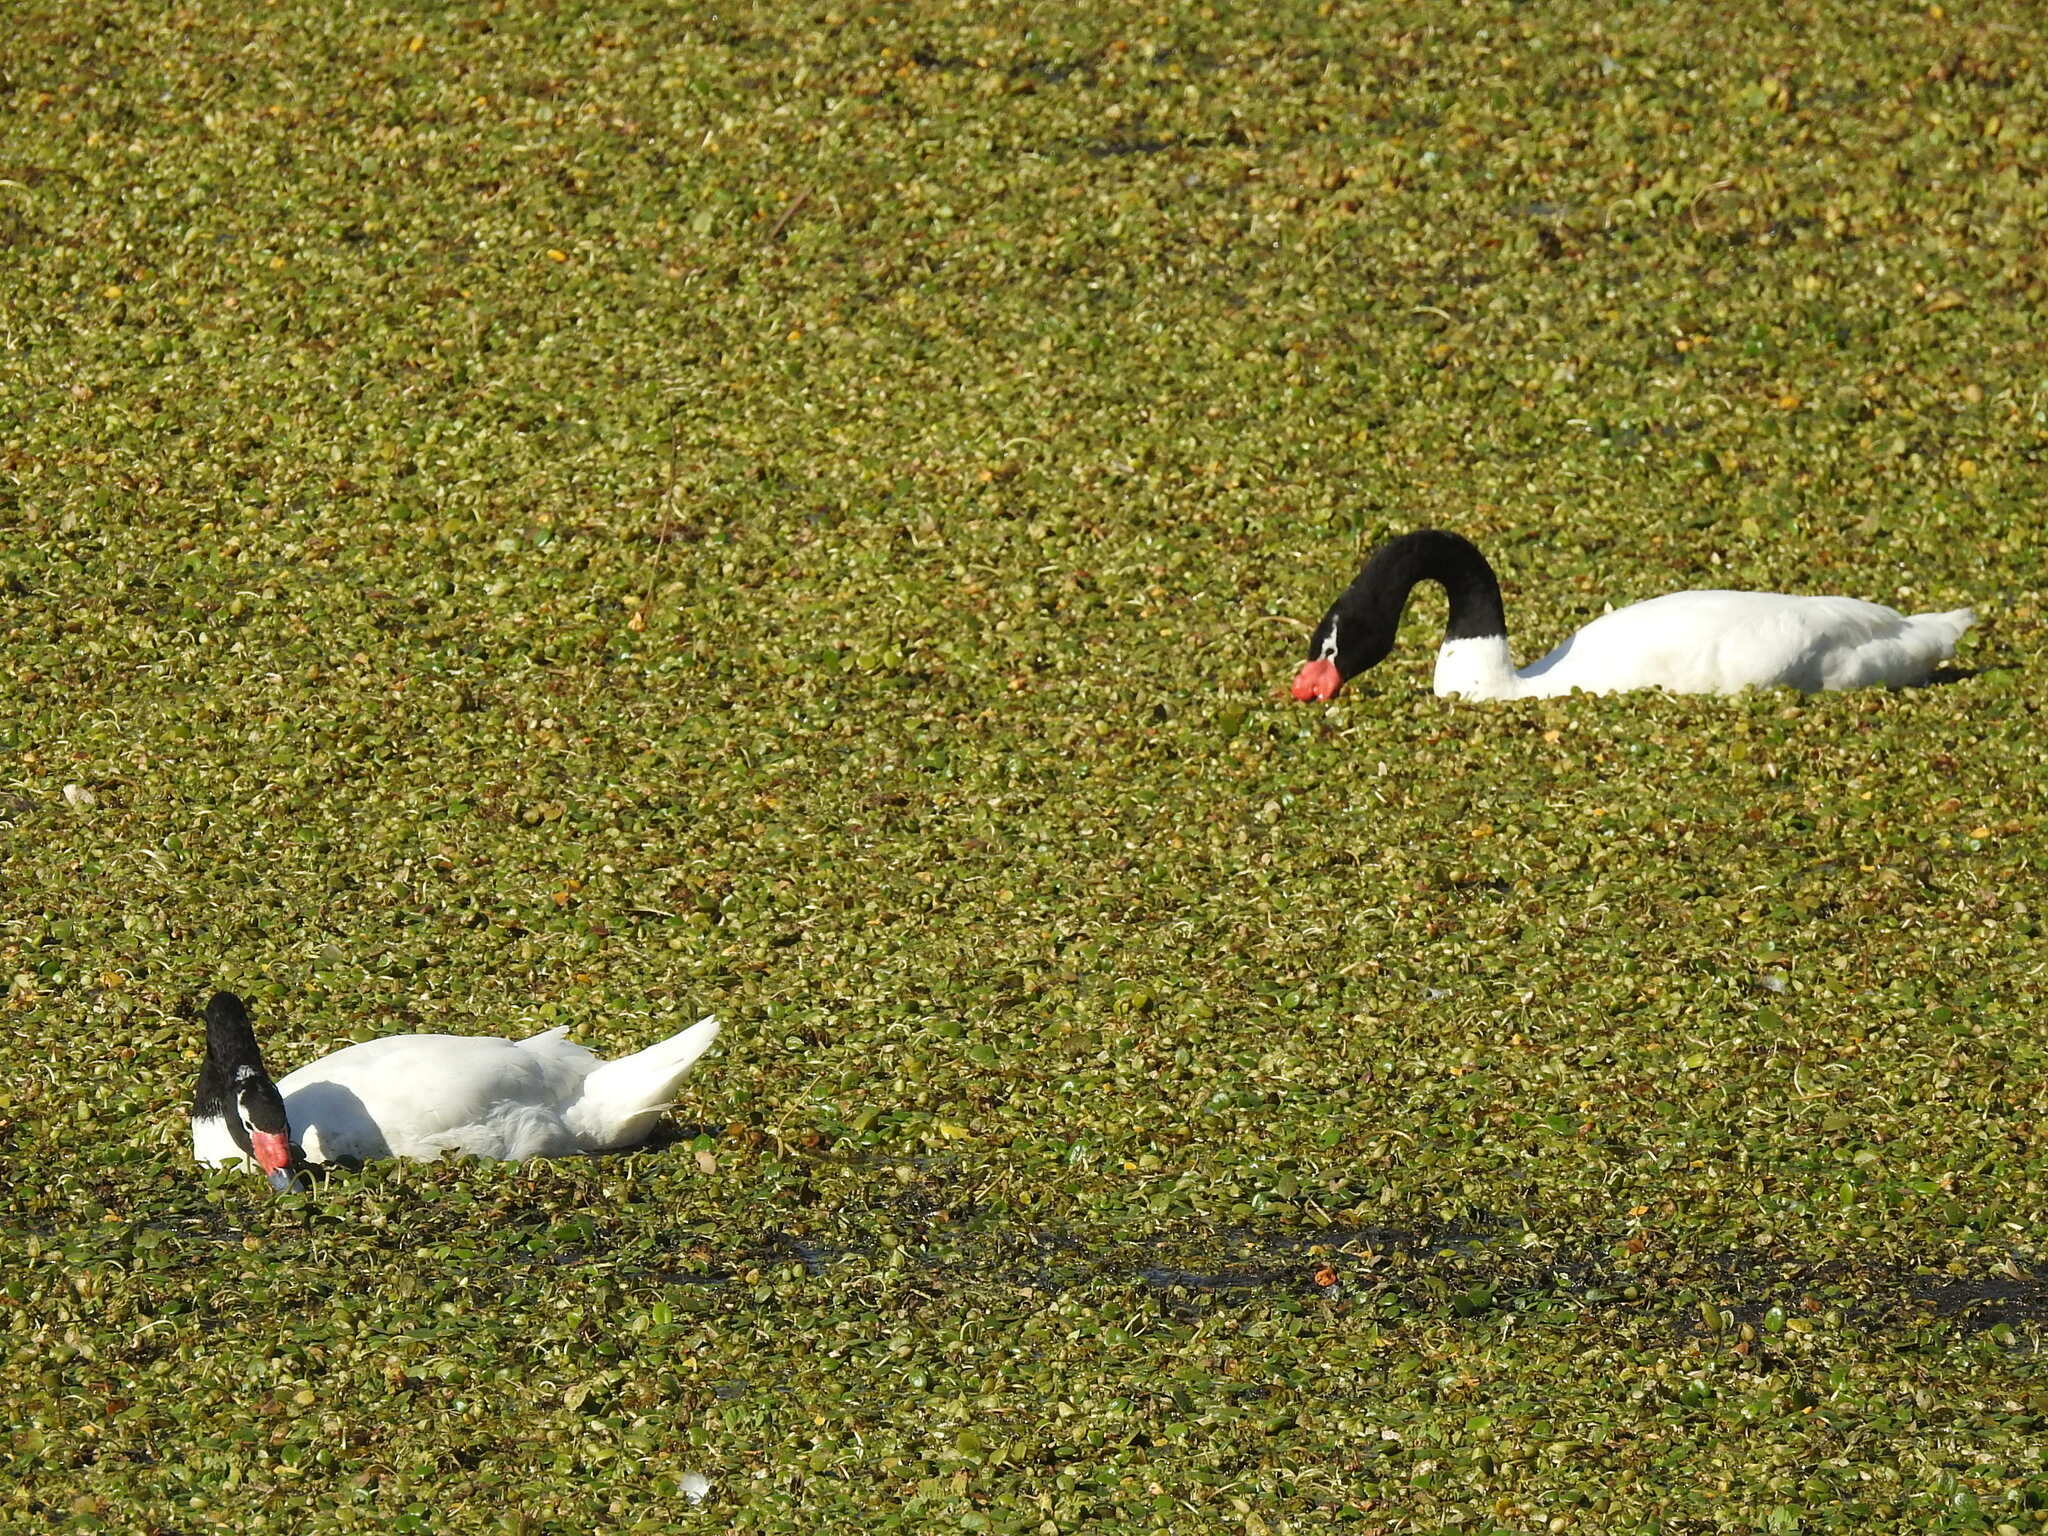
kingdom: Animalia
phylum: Chordata
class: Aves
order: Anseriformes
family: Anatidae
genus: Cygnus
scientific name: Cygnus melancoryphus
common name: Black-necked swan
